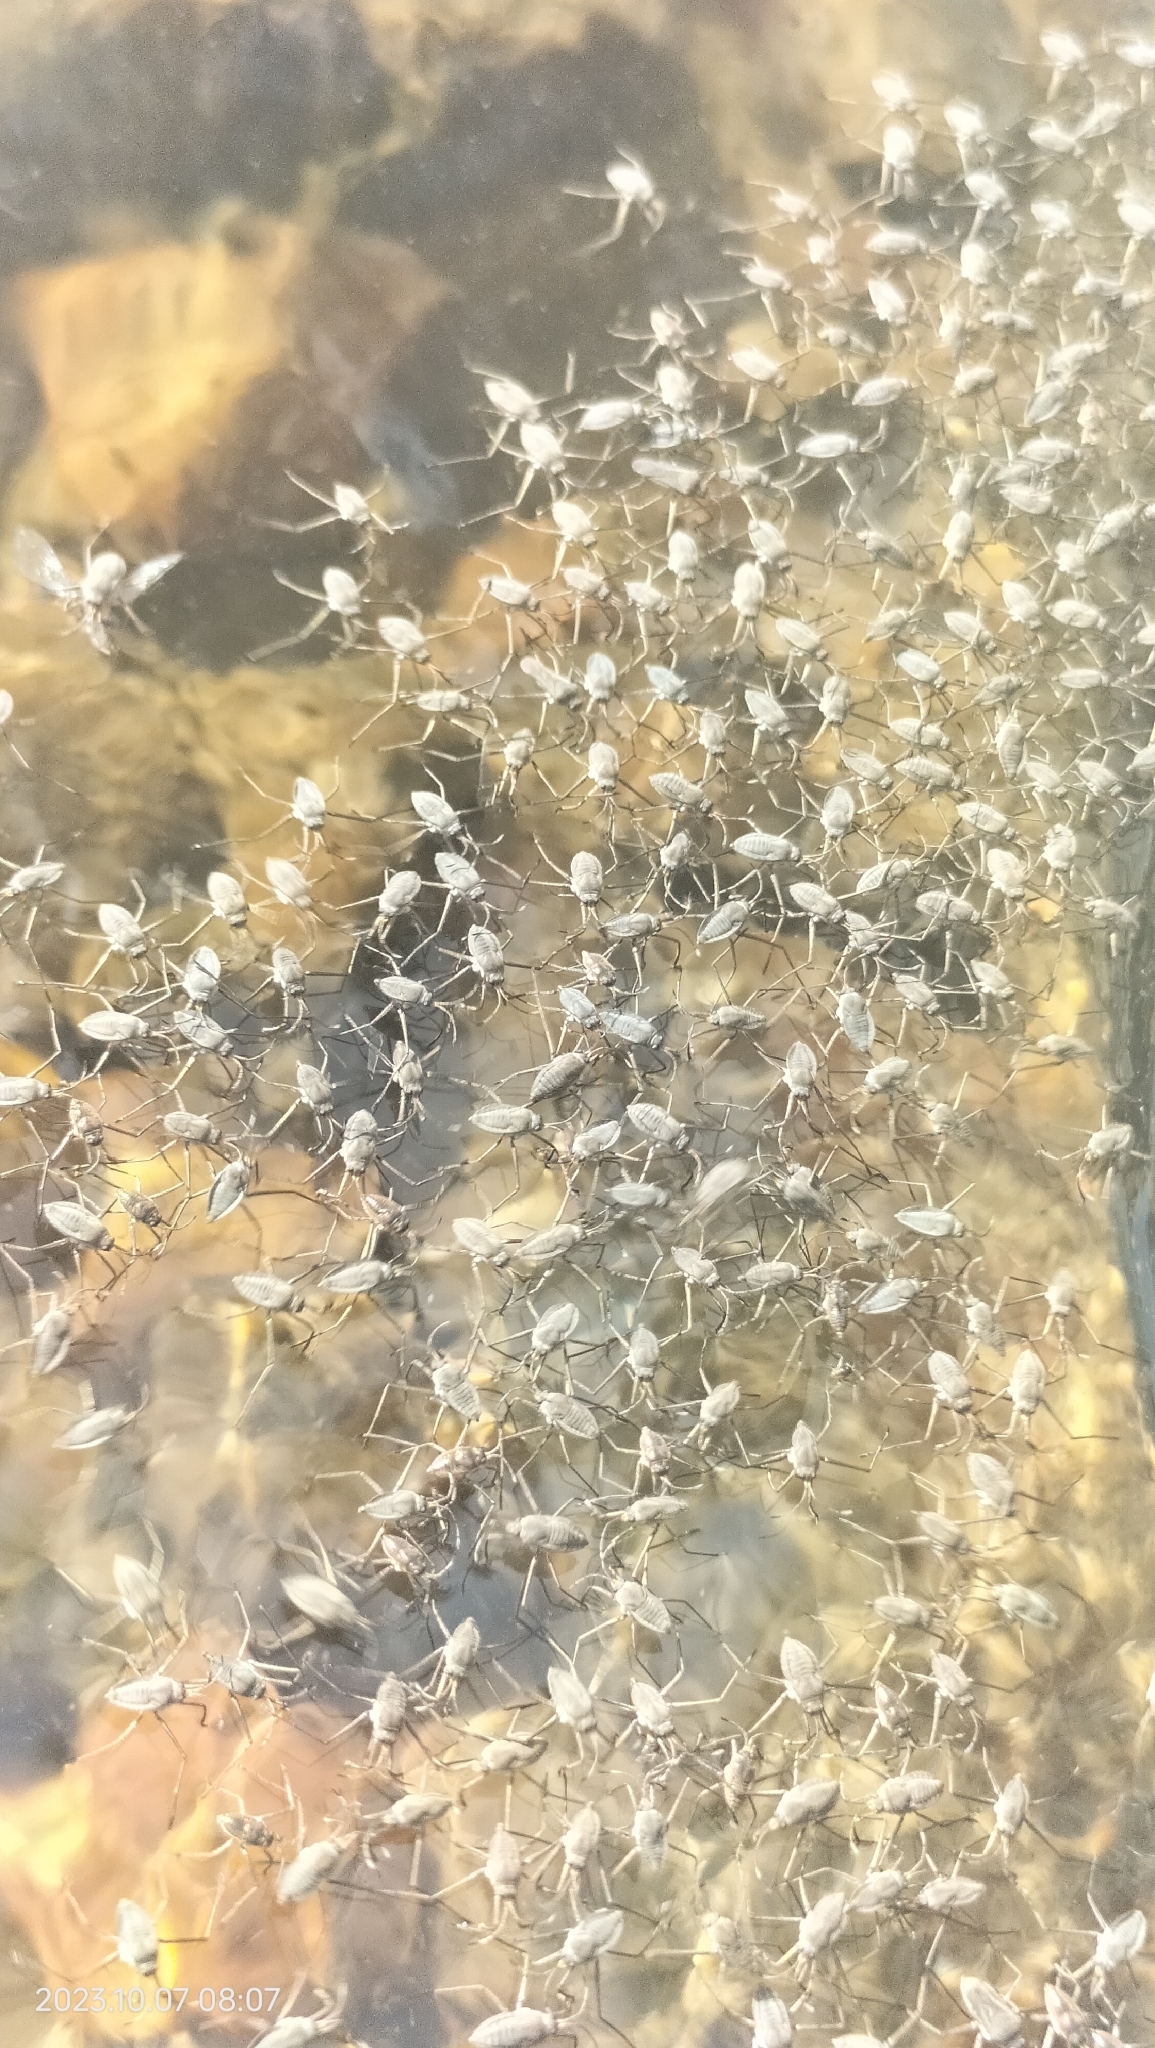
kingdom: Animalia
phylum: Arthropoda
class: Insecta
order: Hemiptera
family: Veliidae
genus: Rhagovelia
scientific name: Rhagovelia
